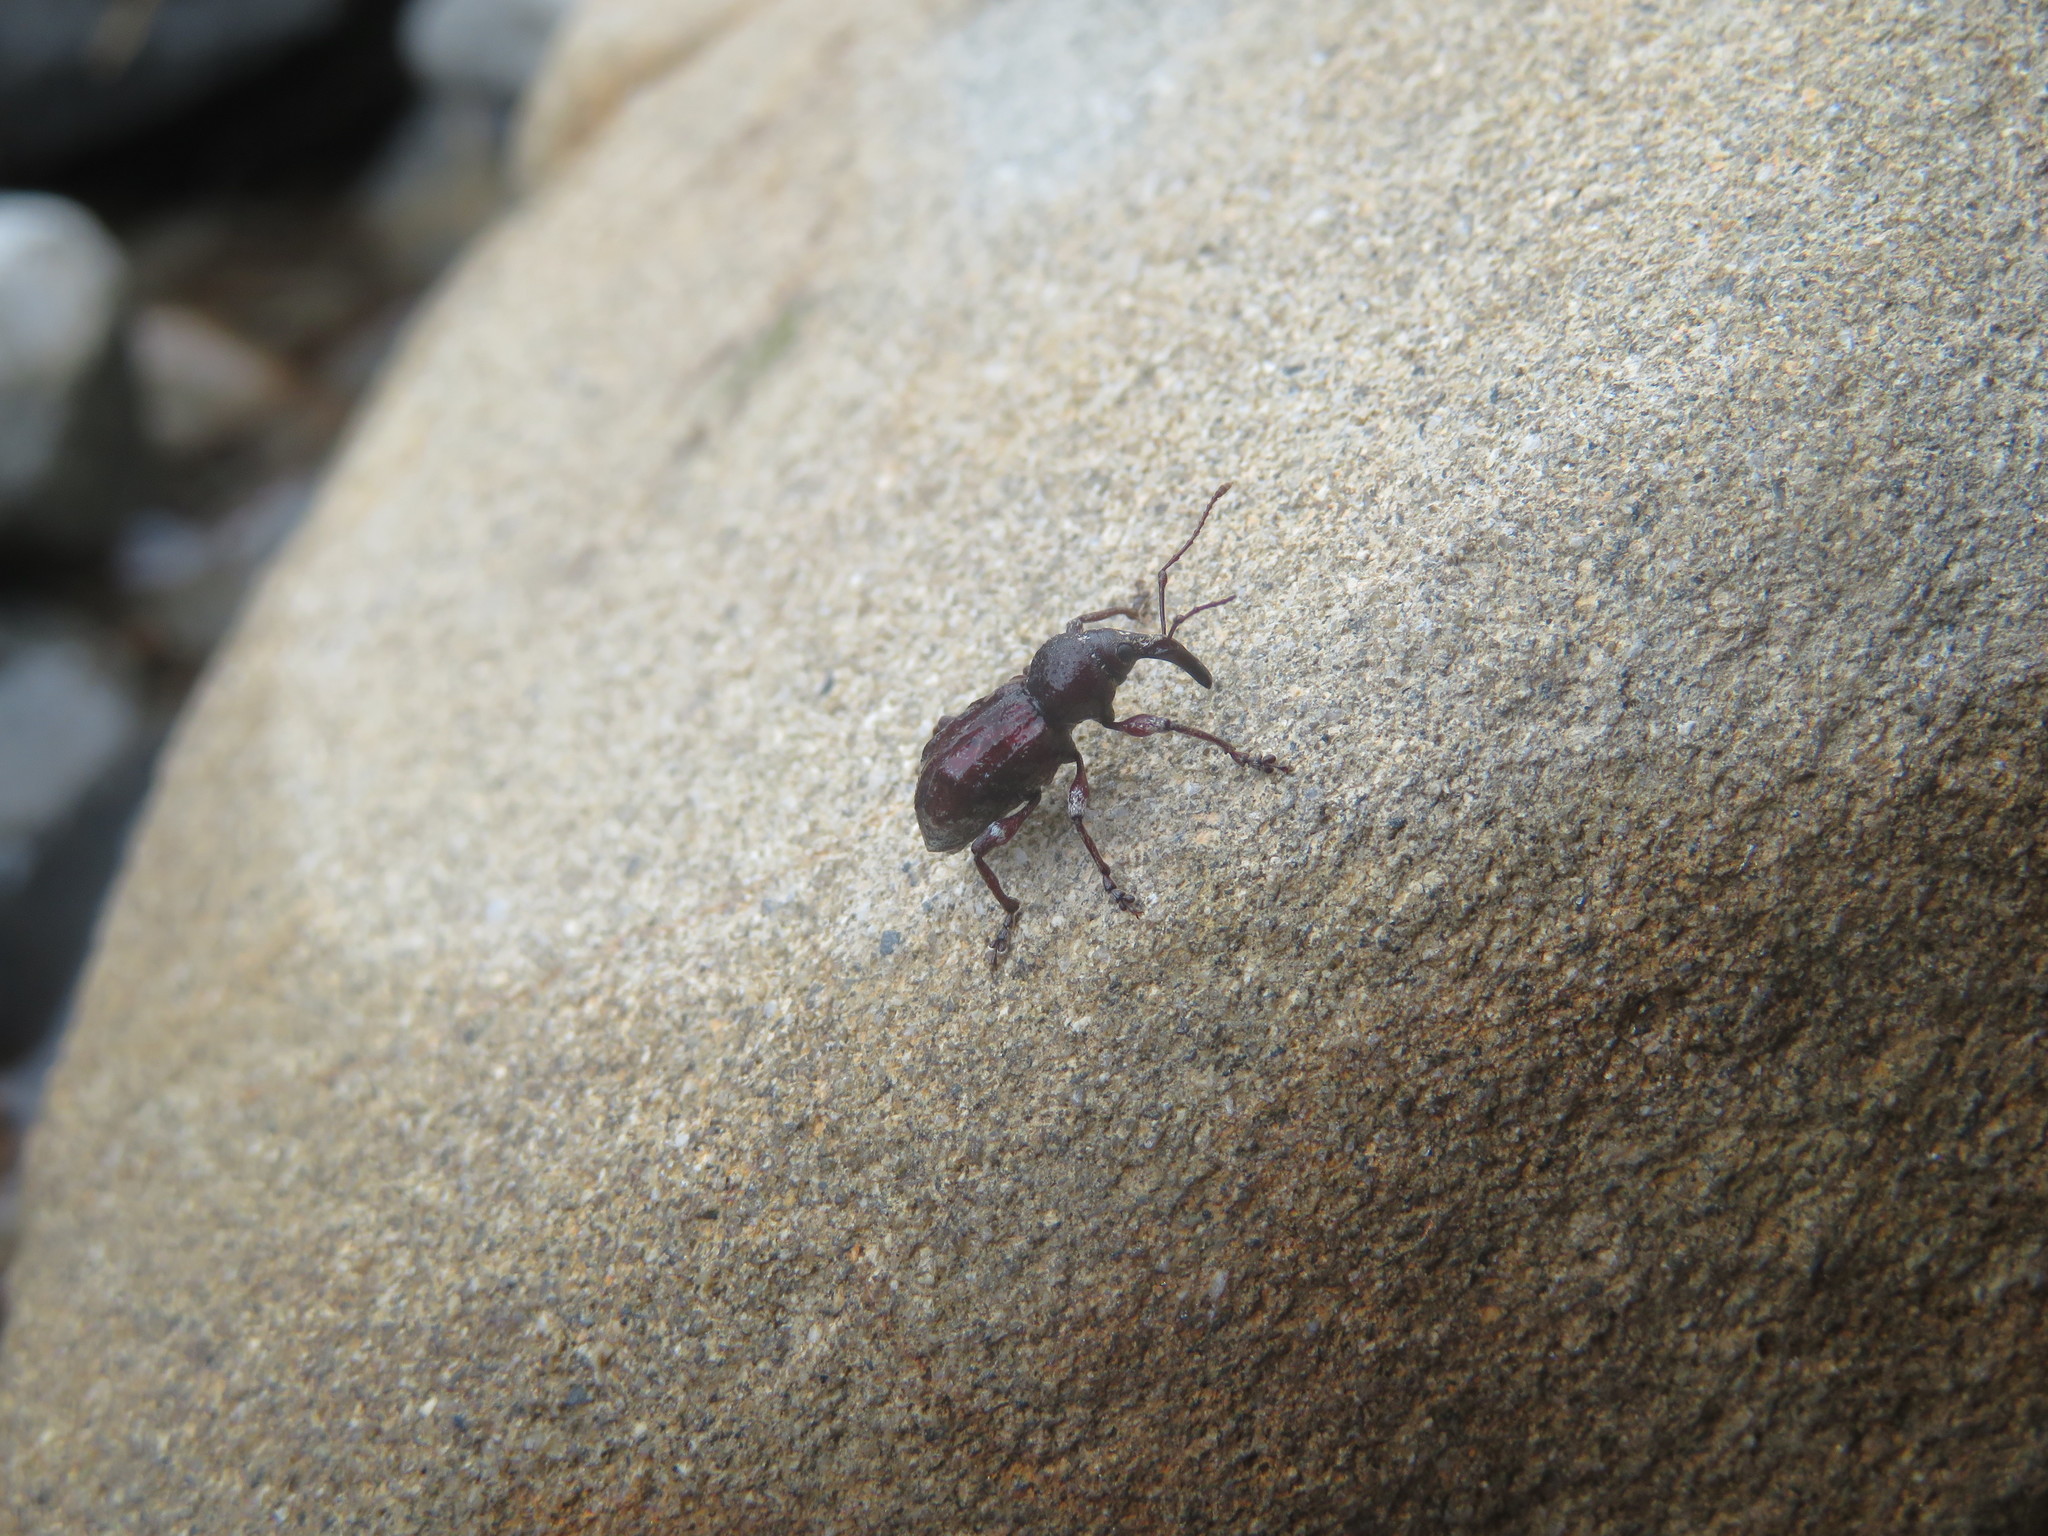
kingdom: Animalia
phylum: Arthropoda
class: Insecta
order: Coleoptera
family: Curculionidae
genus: Heterotyles
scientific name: Heterotyles argentatus
